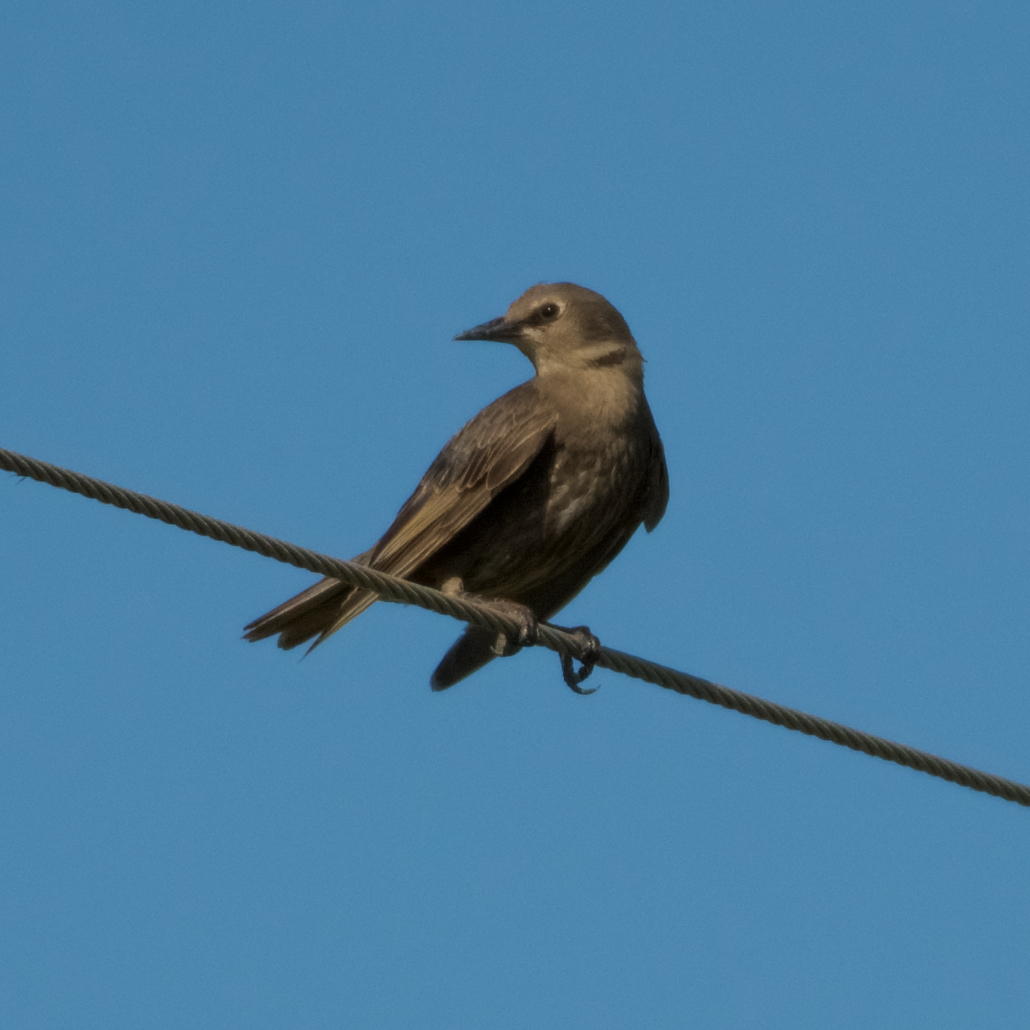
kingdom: Animalia
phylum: Chordata
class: Aves
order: Passeriformes
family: Sturnidae
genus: Sturnus
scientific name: Sturnus vulgaris
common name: Common starling
